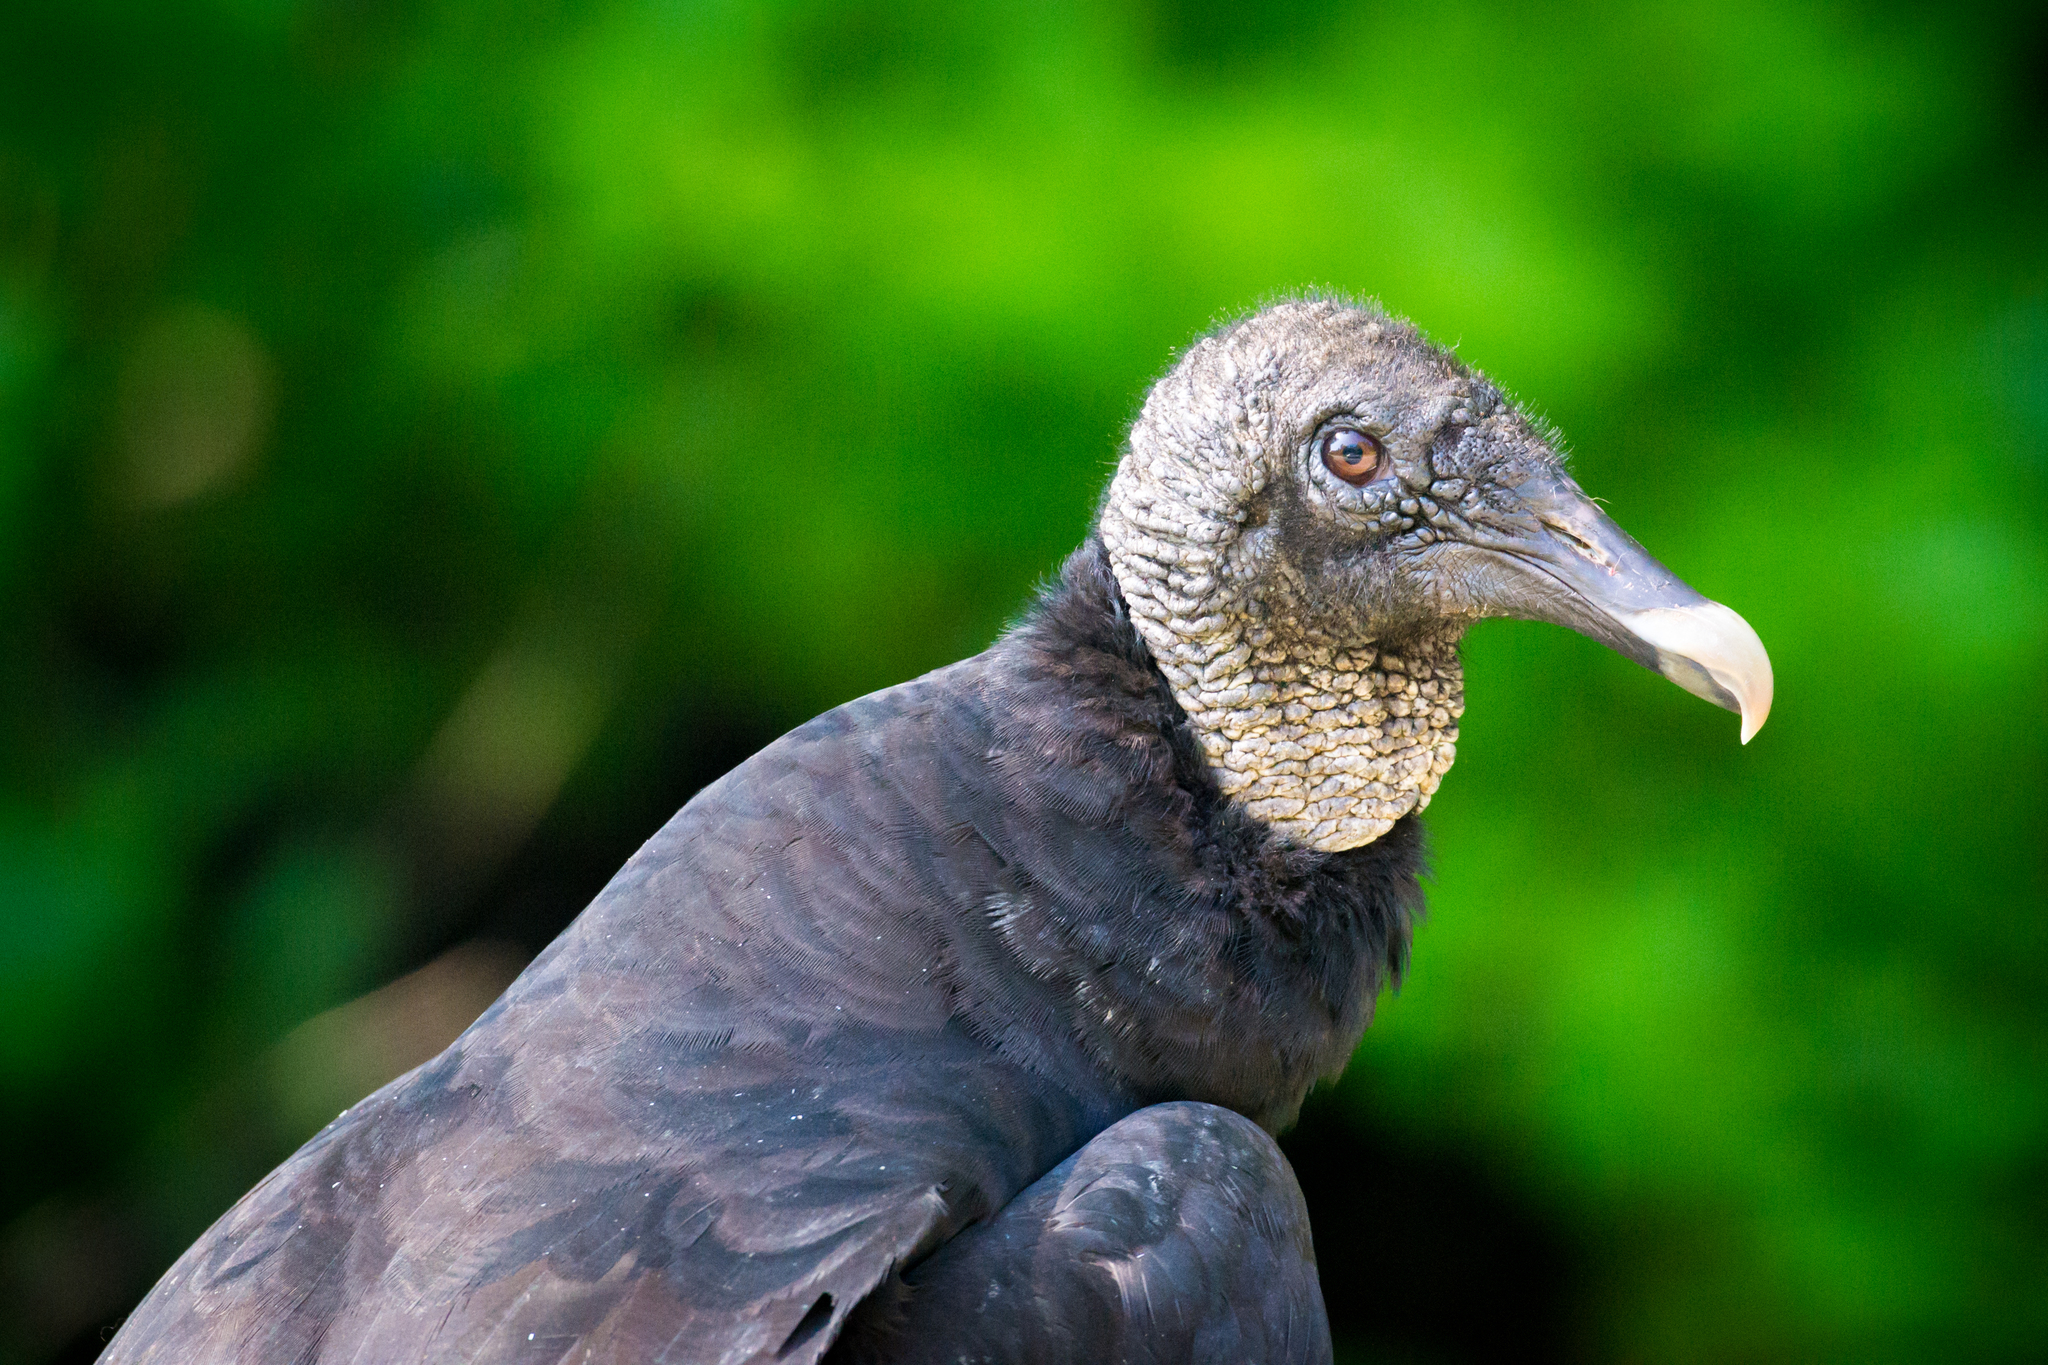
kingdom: Animalia
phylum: Chordata
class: Aves
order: Accipitriformes
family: Cathartidae
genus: Coragyps
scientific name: Coragyps atratus
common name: Black vulture
